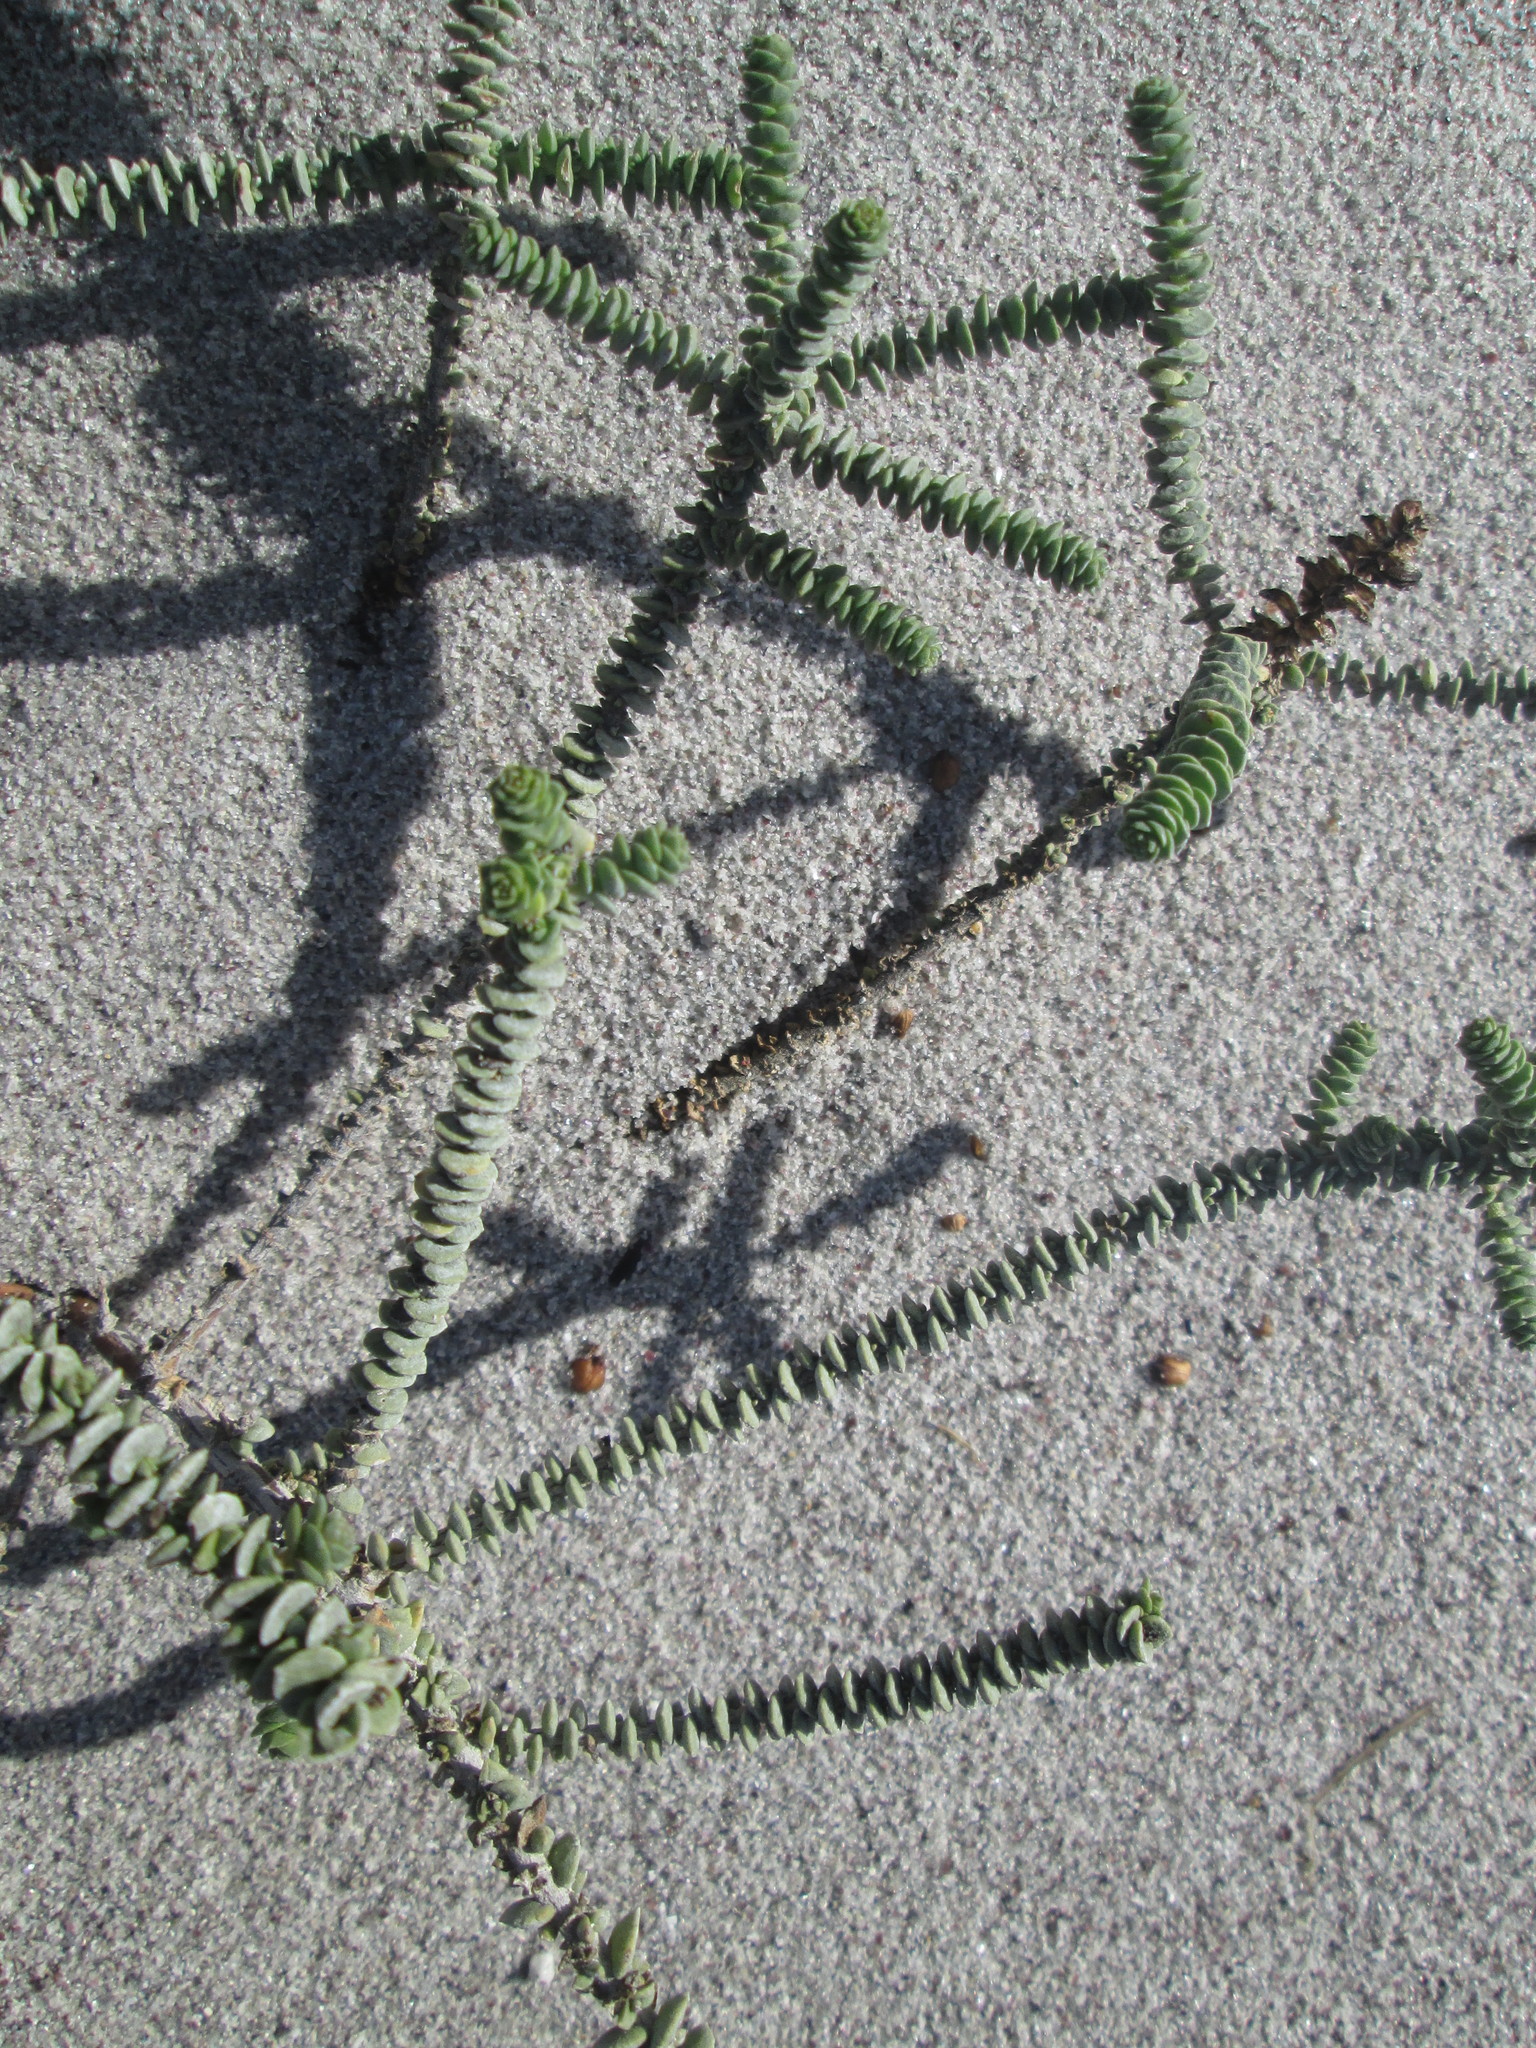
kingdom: Plantae
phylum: Tracheophyta
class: Magnoliopsida
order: Lamiales
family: Scrophulariaceae
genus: Hebenstretia
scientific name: Hebenstretia cordata
